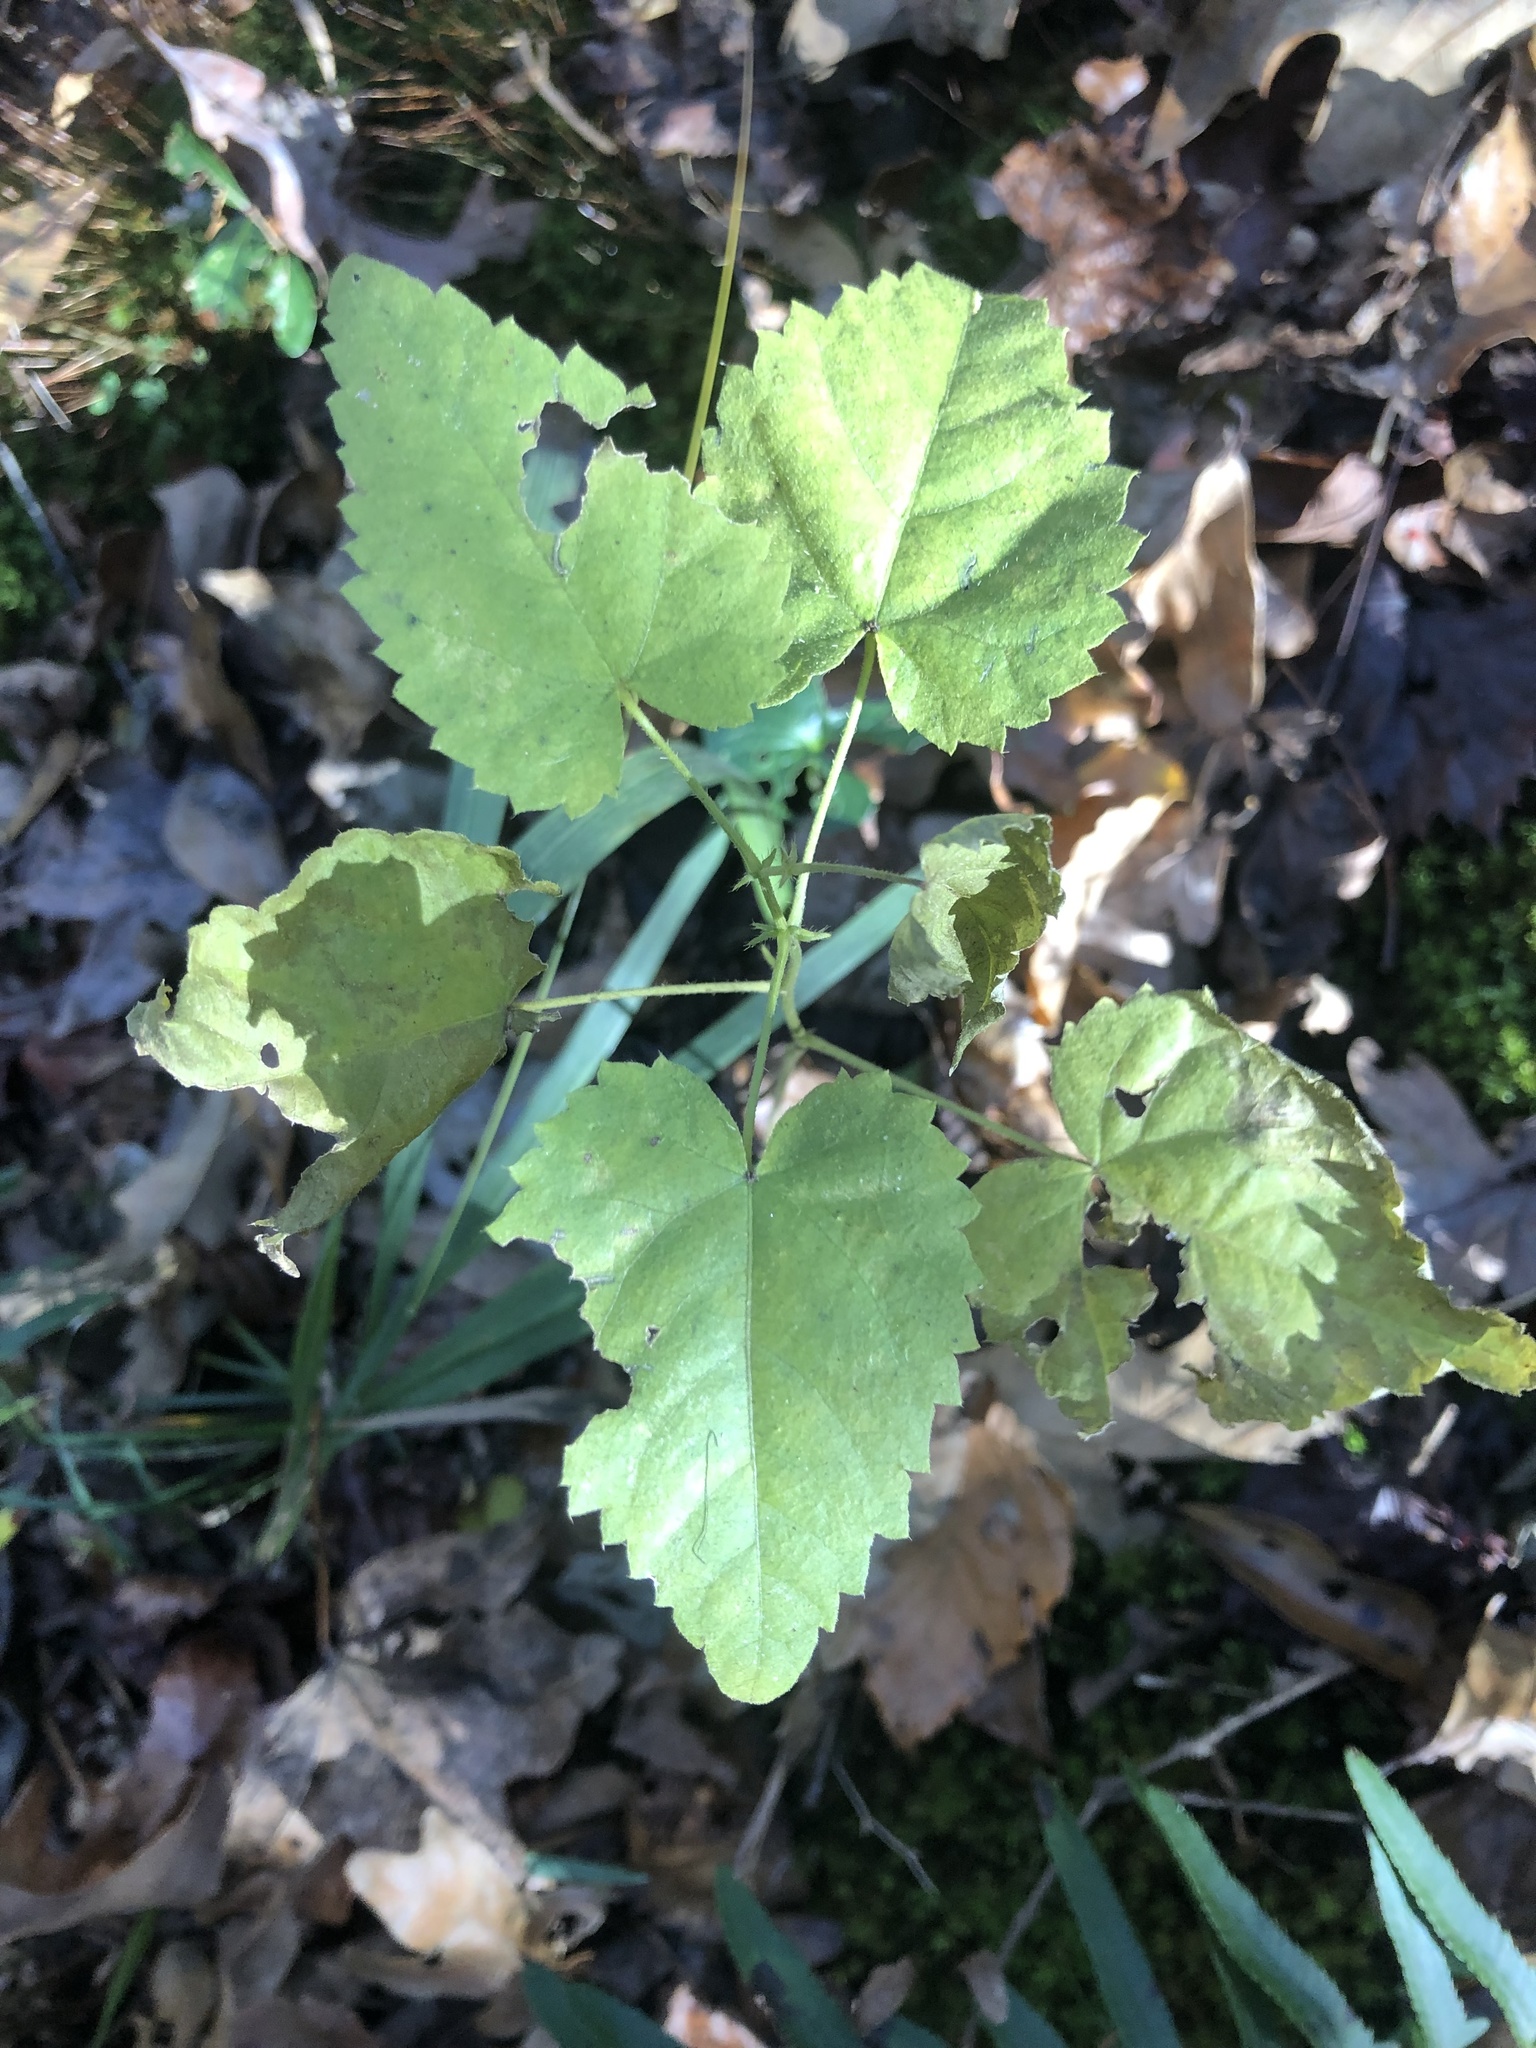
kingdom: Plantae
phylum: Tracheophyta
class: Magnoliopsida
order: Malpighiales
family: Euphorbiaceae
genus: Tragia
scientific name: Tragia cordata
